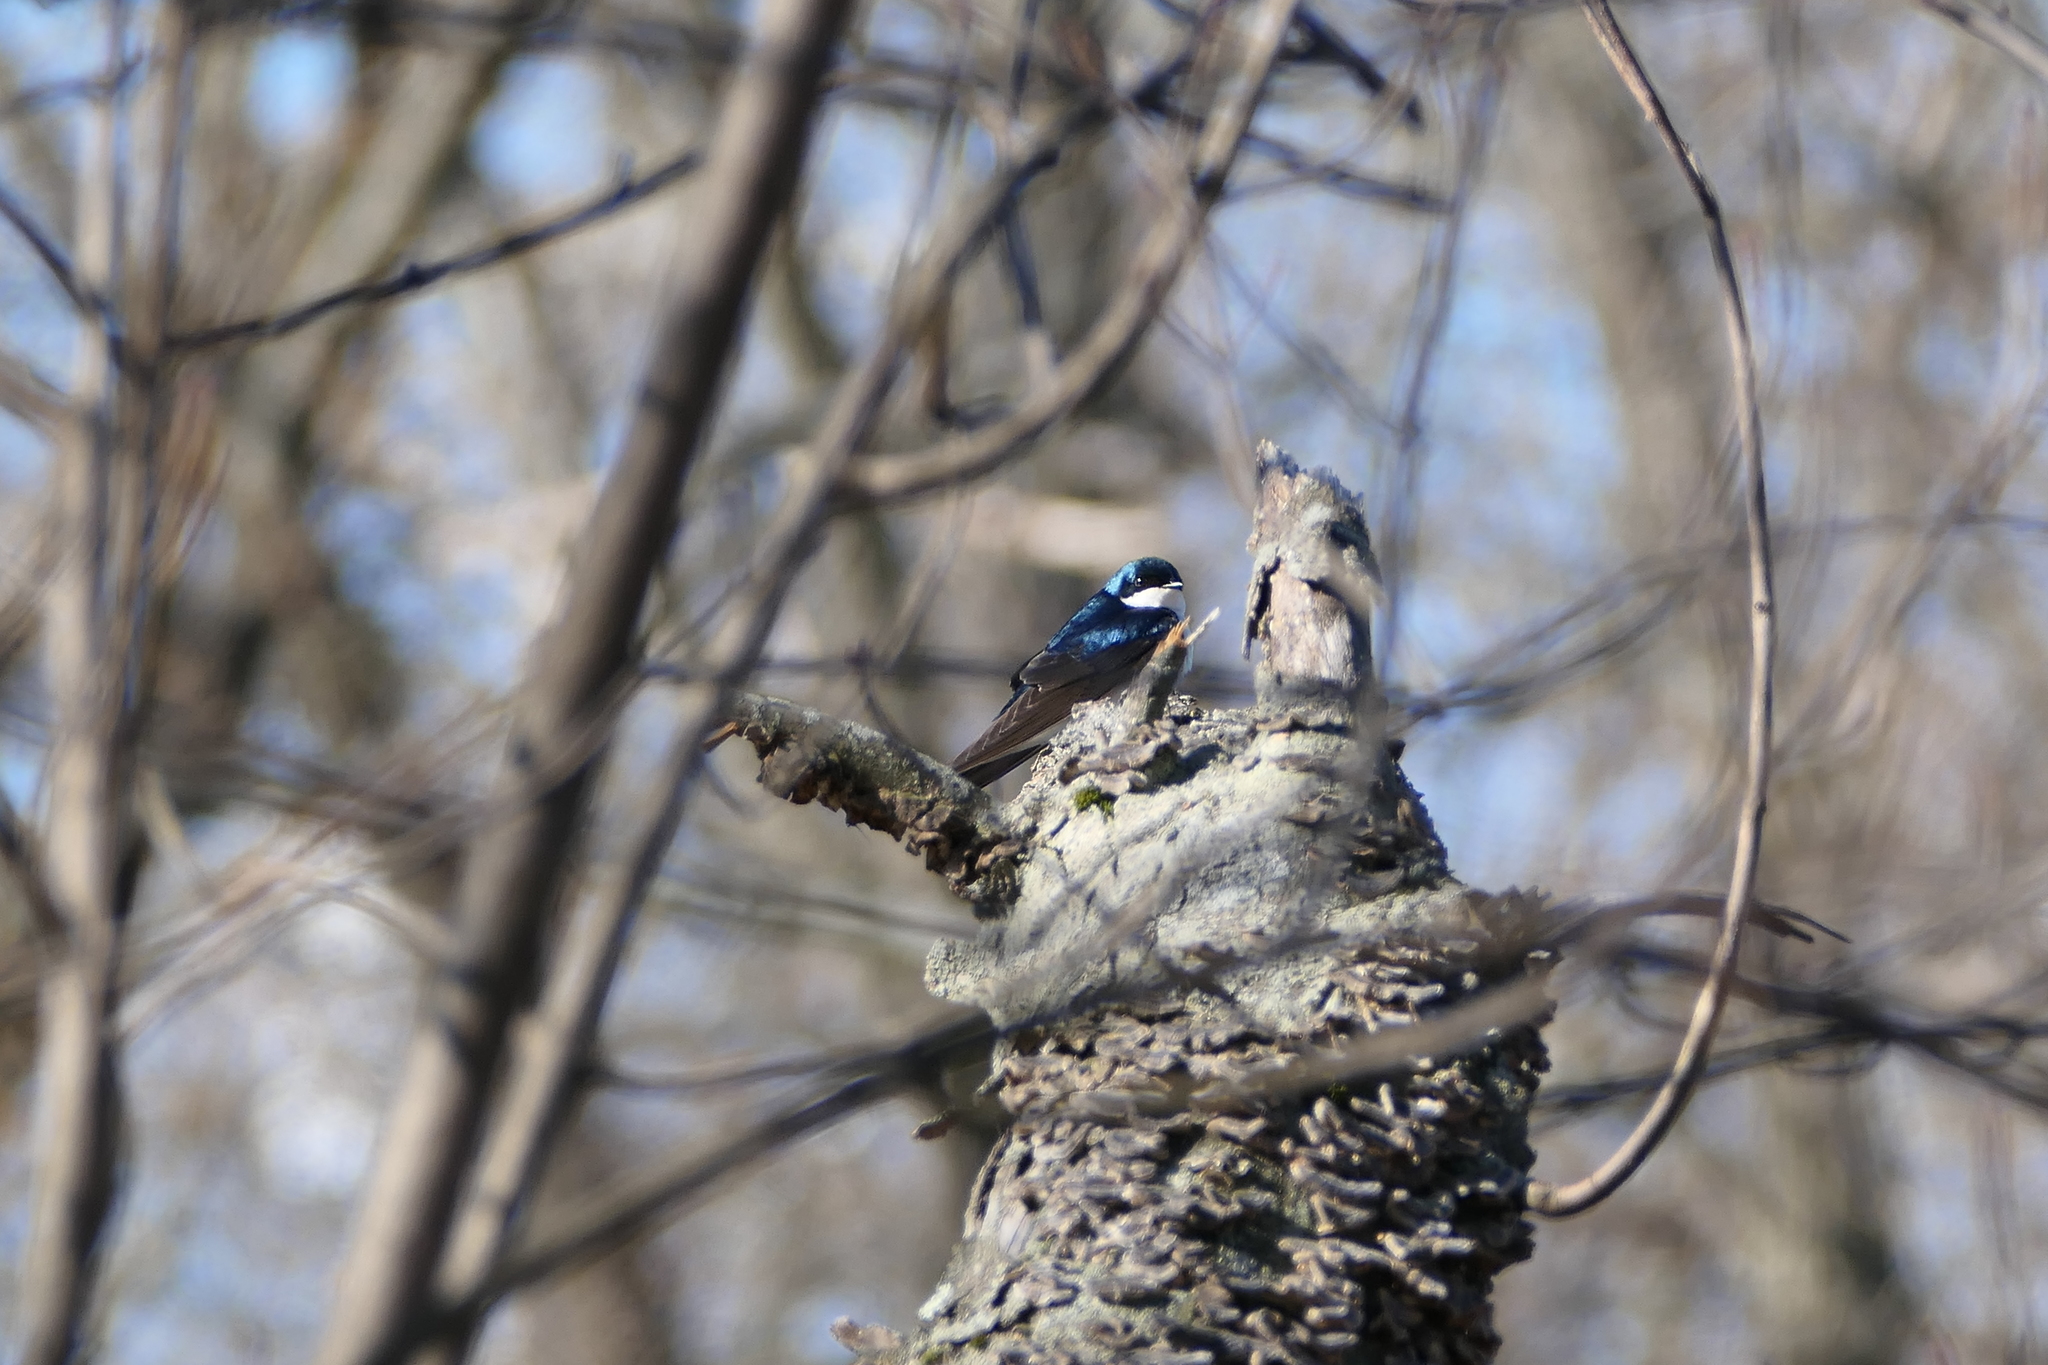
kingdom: Animalia
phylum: Chordata
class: Aves
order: Passeriformes
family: Hirundinidae
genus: Tachycineta
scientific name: Tachycineta bicolor
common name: Tree swallow
